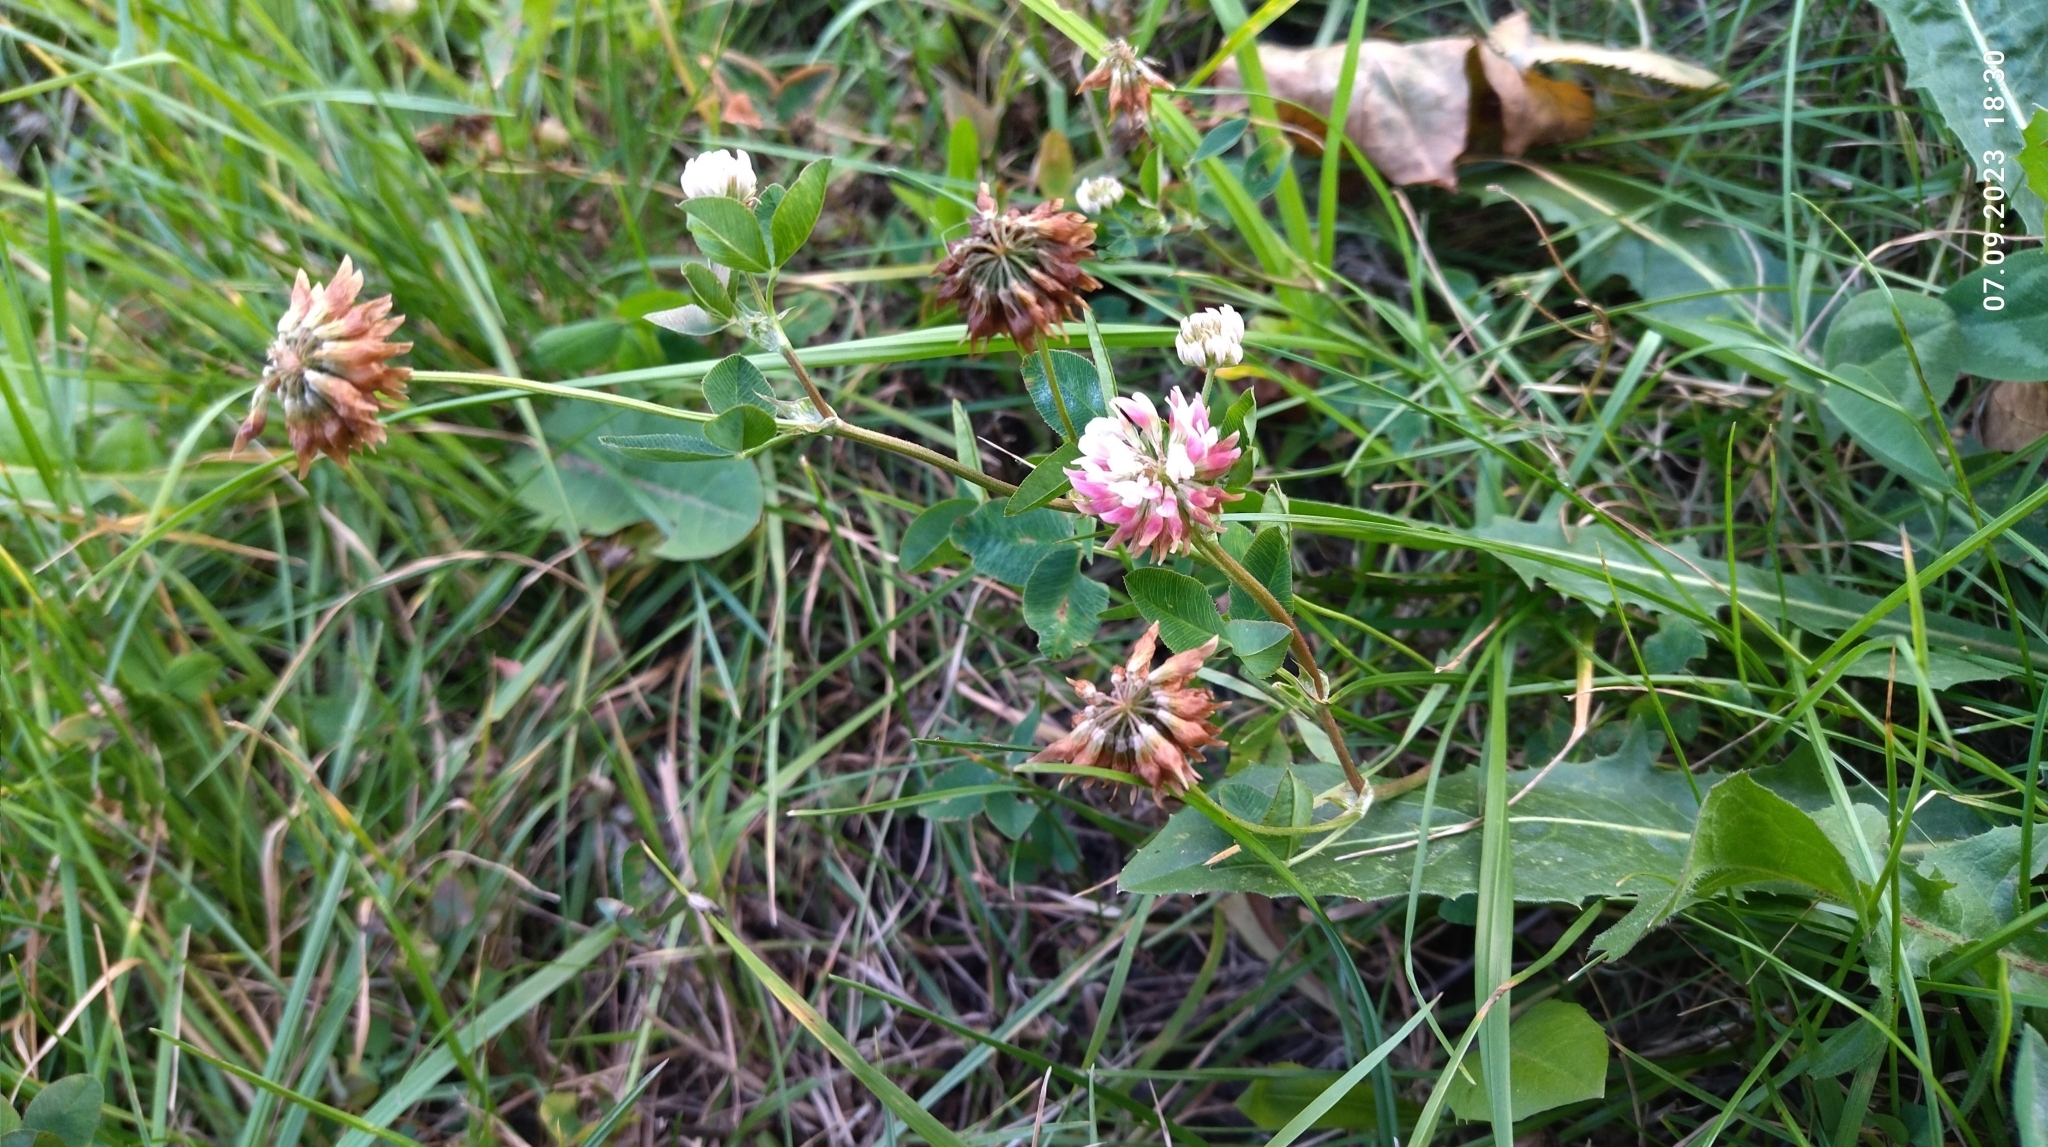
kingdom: Plantae
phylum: Tracheophyta
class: Magnoliopsida
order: Fabales
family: Fabaceae
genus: Trifolium
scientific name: Trifolium hybridum
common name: Alsike clover
